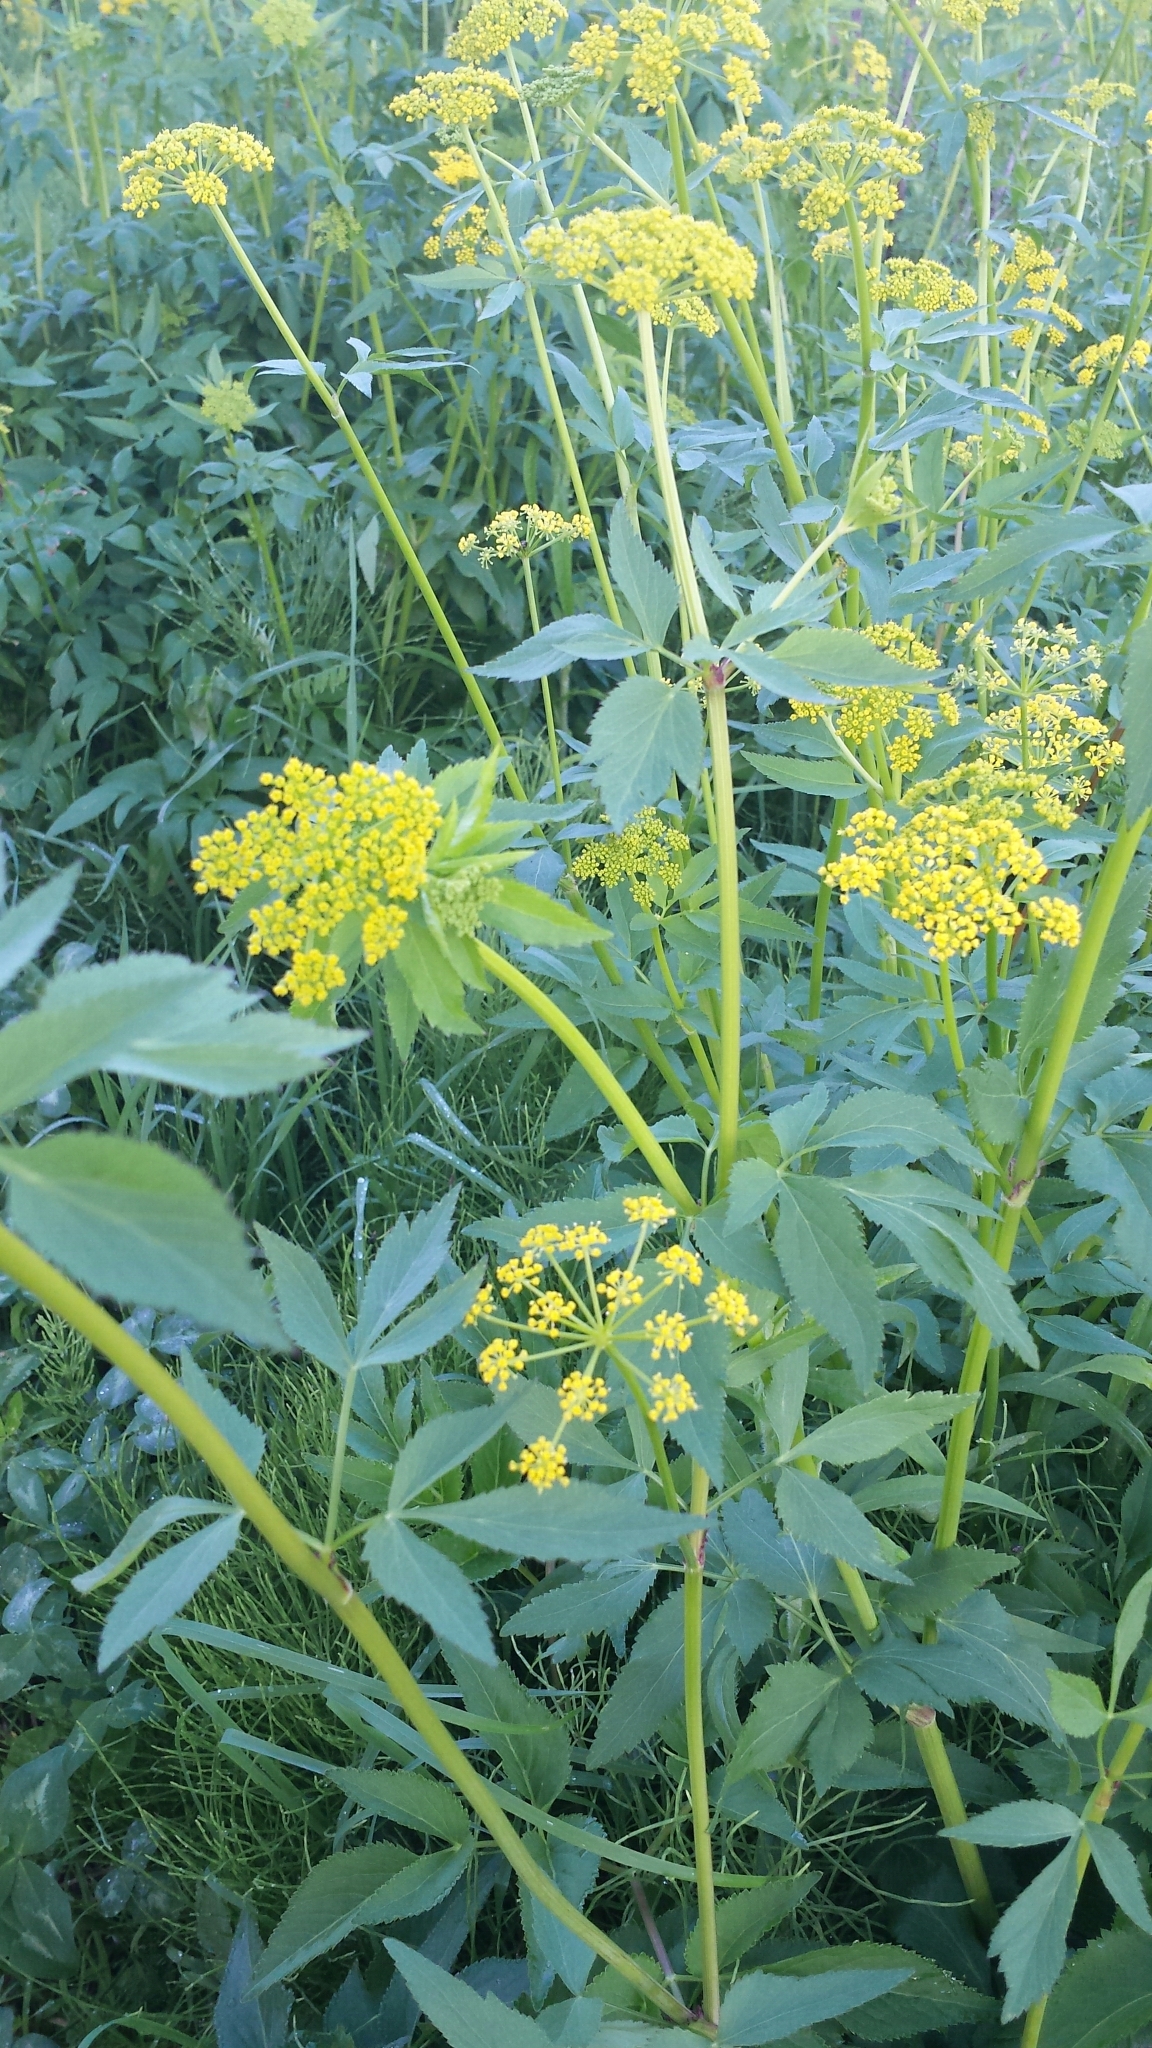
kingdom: Plantae
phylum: Tracheophyta
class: Magnoliopsida
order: Apiales
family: Apiaceae
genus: Zizia
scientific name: Zizia aurea
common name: Golden alexanders
